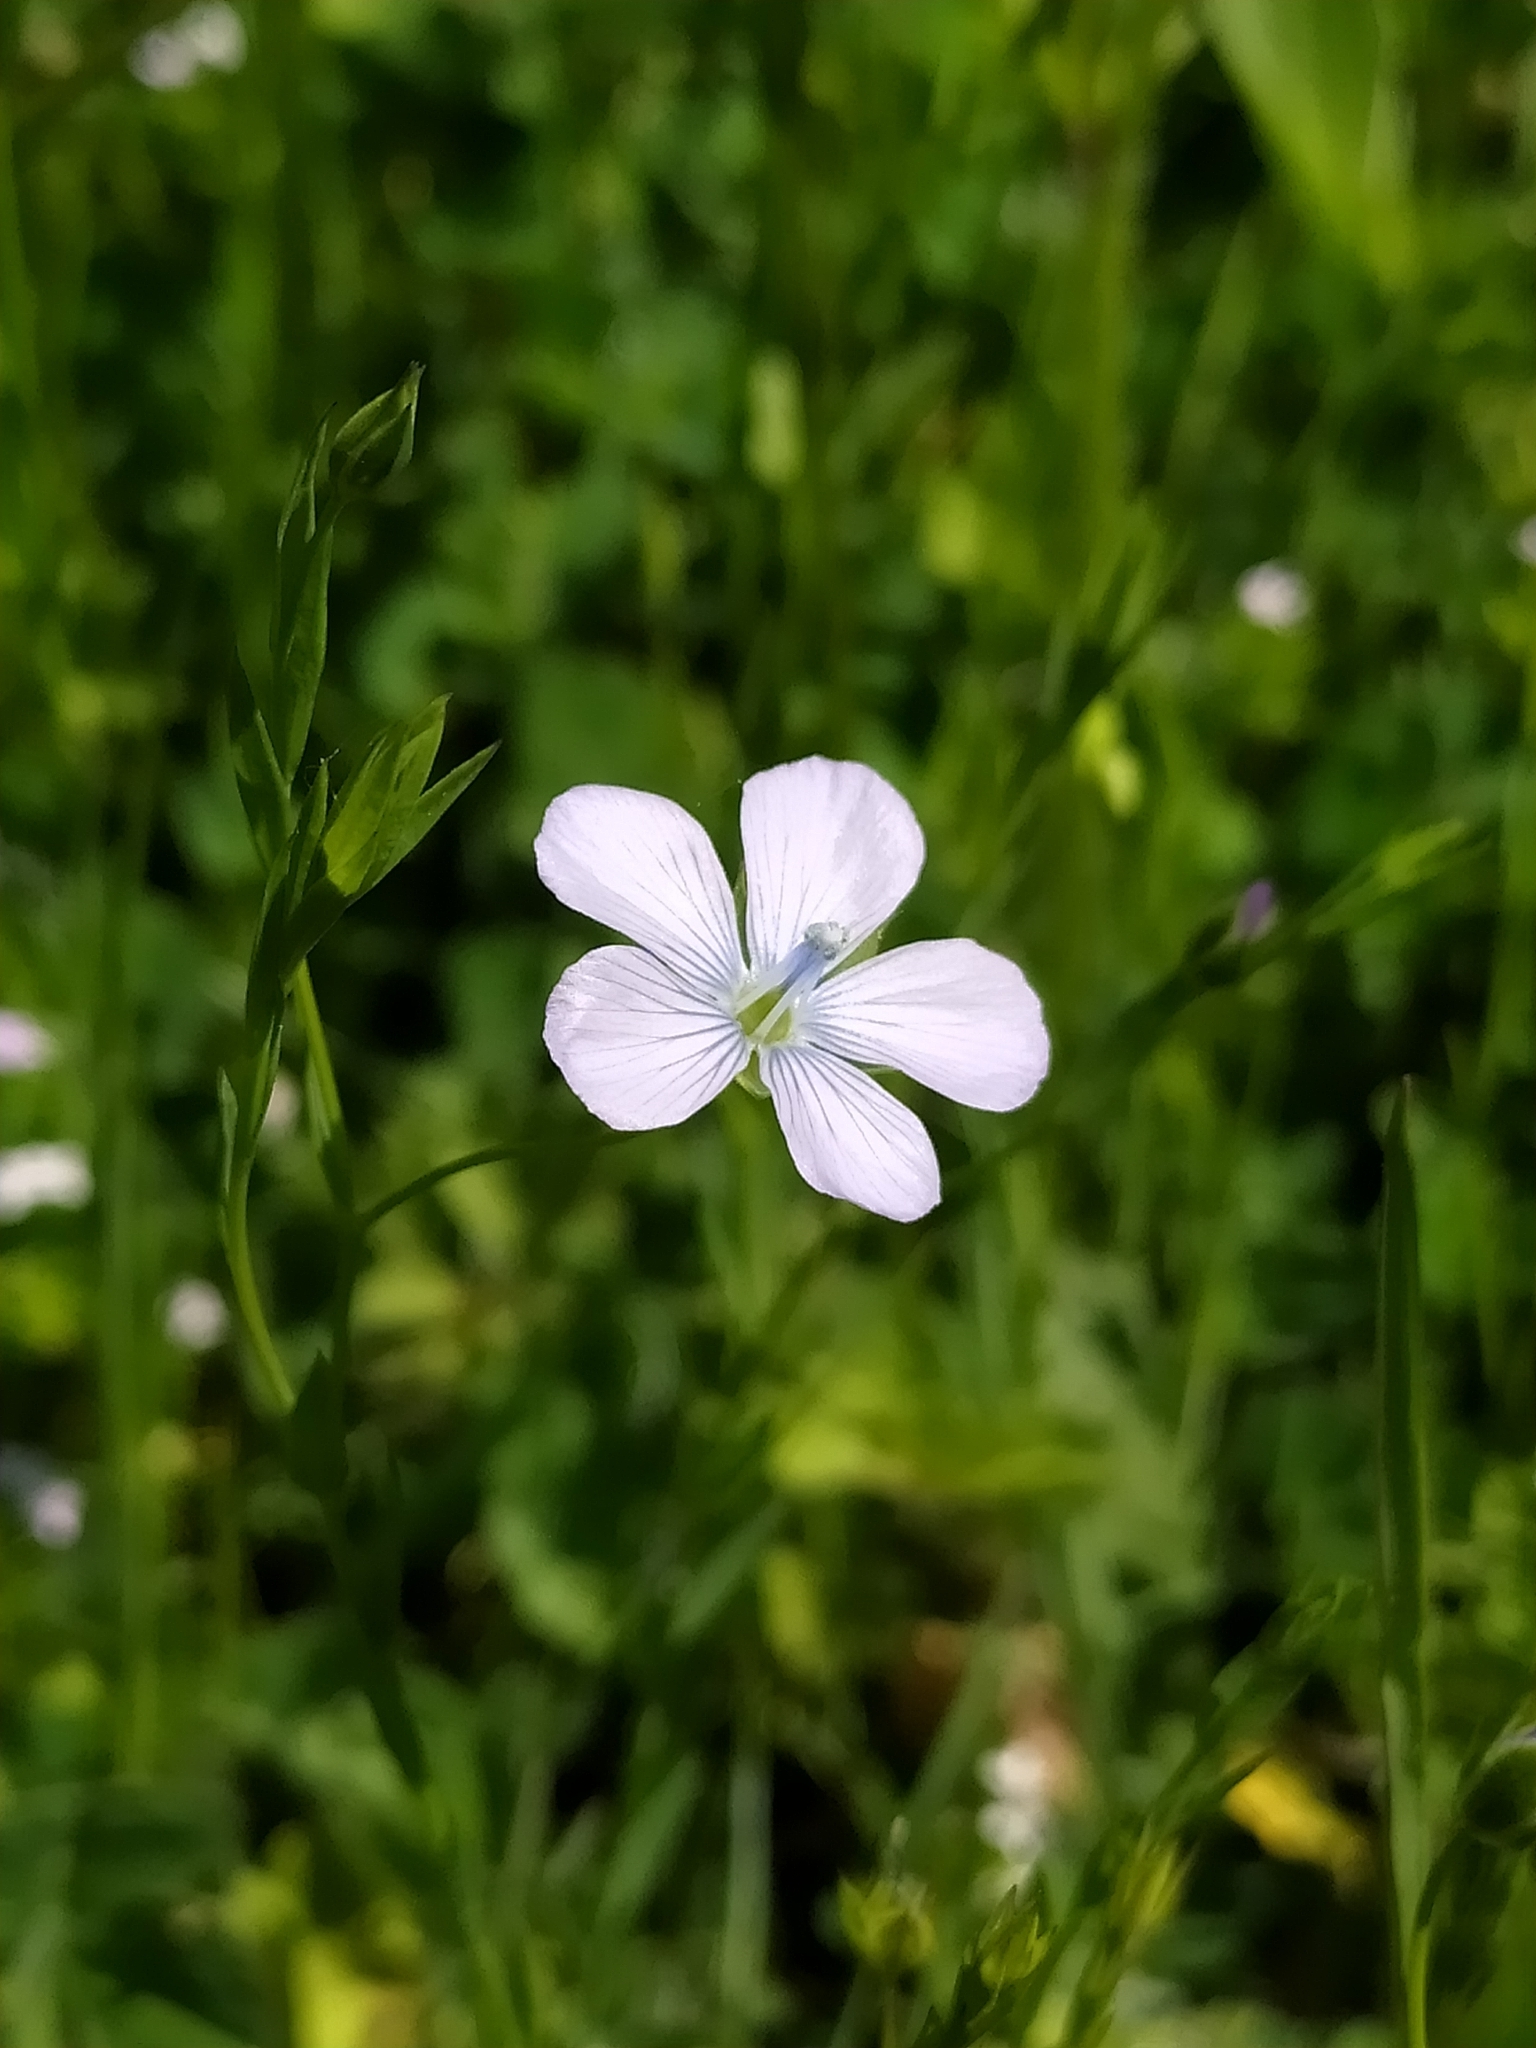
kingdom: Plantae
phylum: Tracheophyta
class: Magnoliopsida
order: Malpighiales
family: Linaceae
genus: Linum
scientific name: Linum bienne
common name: Pale flax
